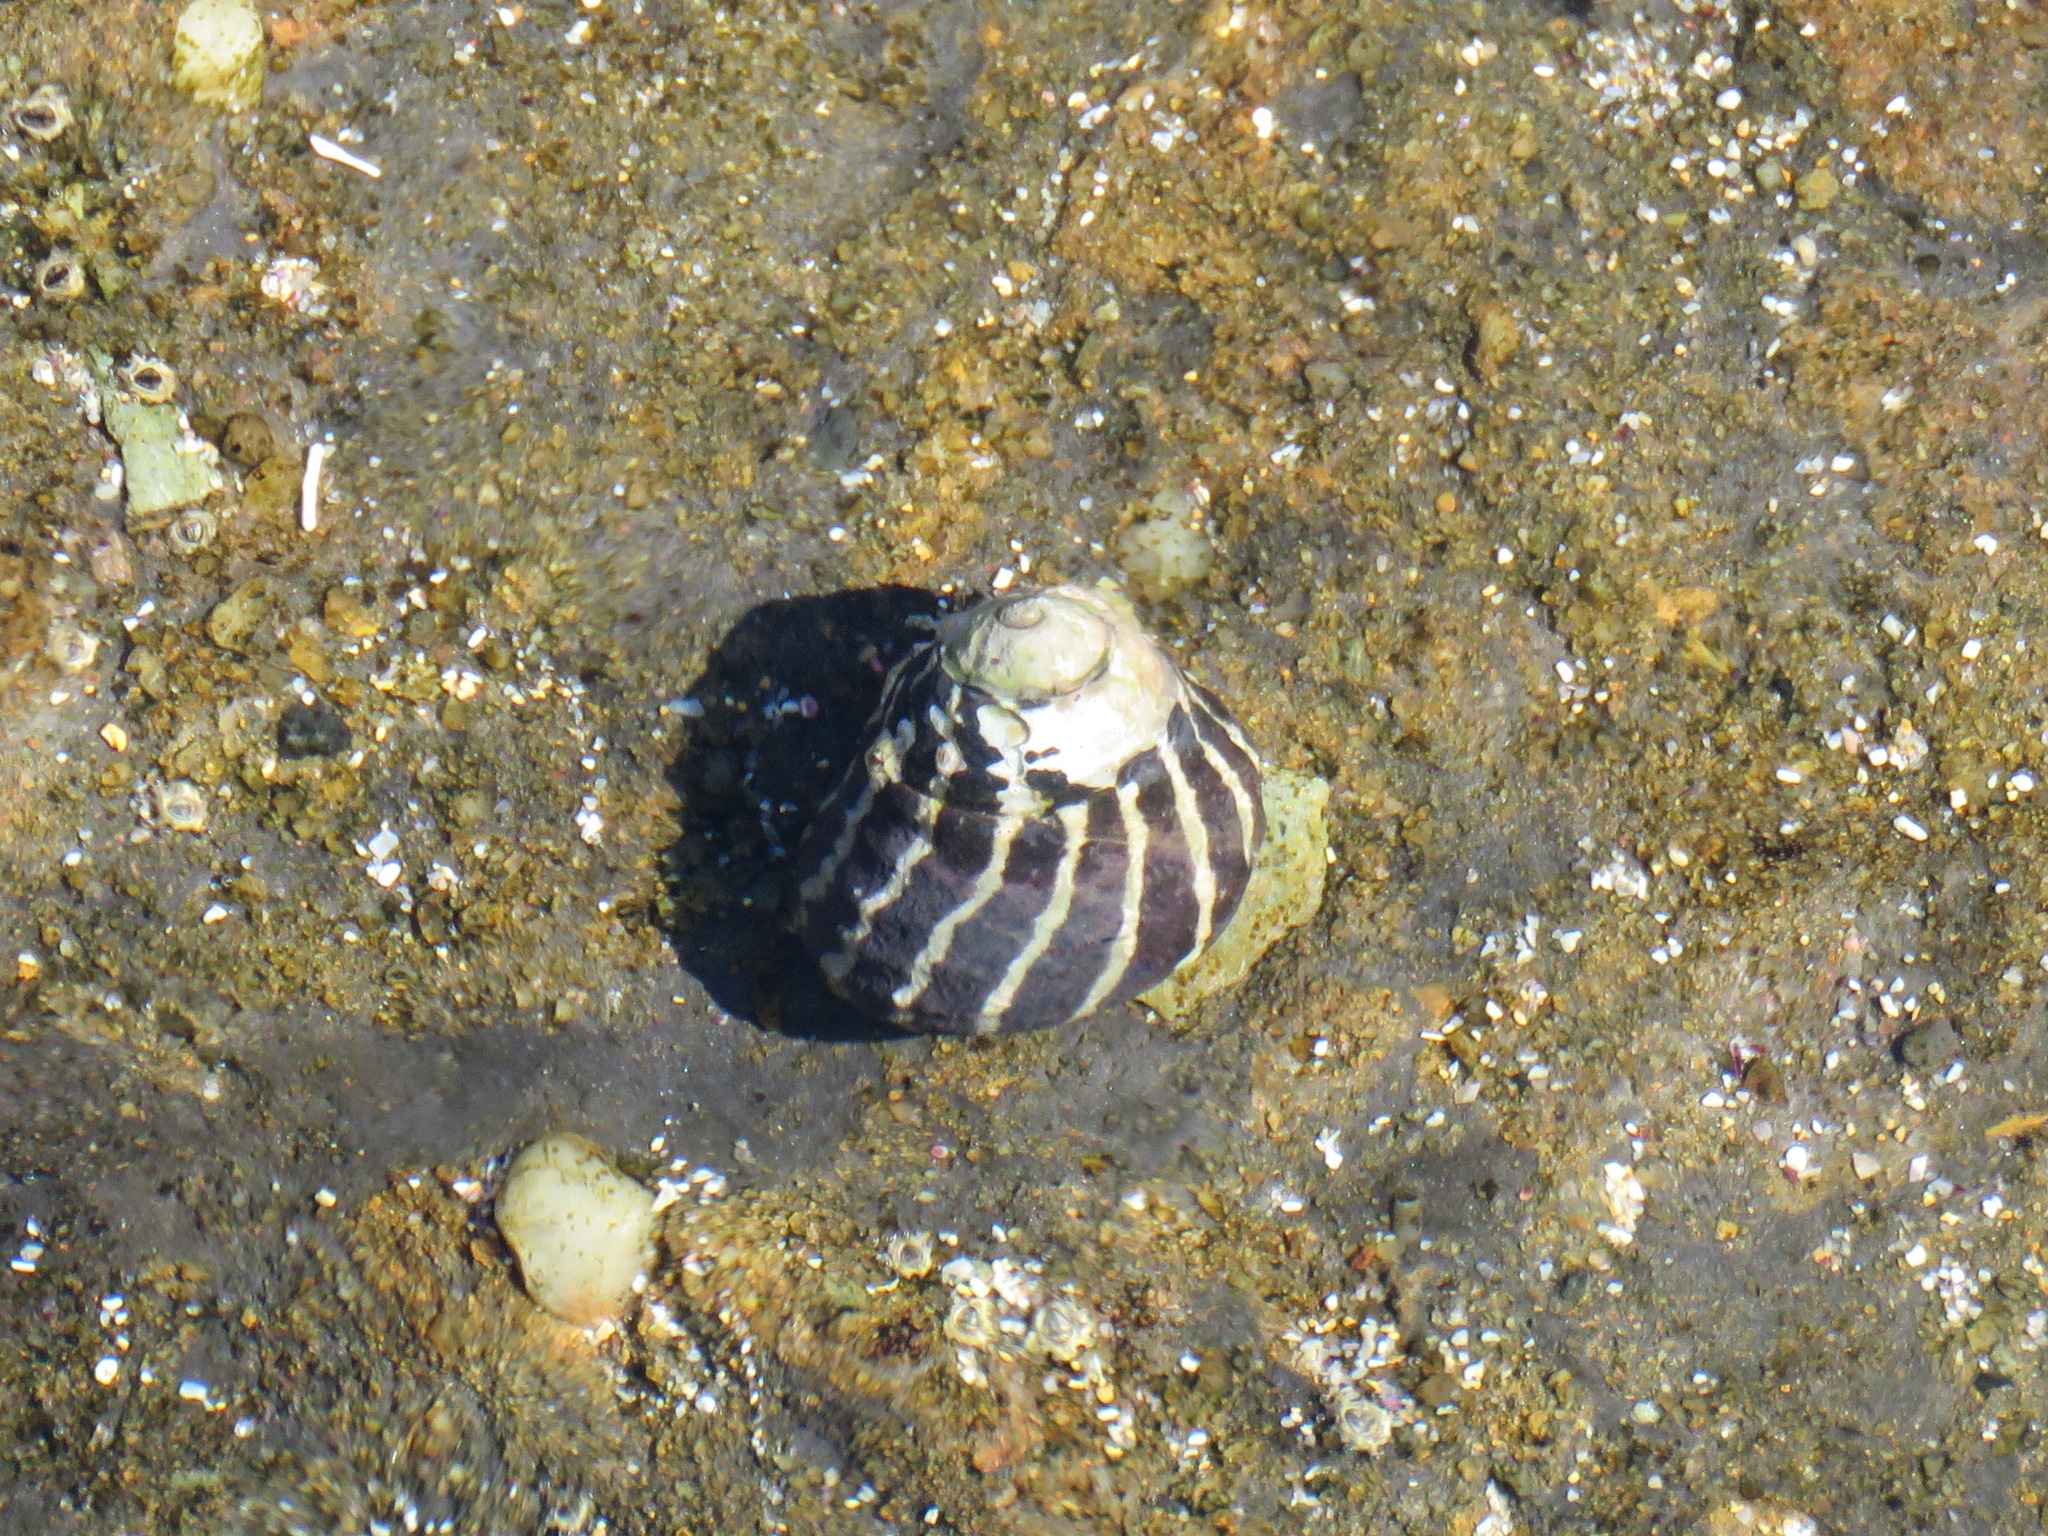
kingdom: Animalia
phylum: Mollusca
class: Gastropoda
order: Trochida
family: Trochidae
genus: Austrocochlea
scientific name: Austrocochlea porcata
